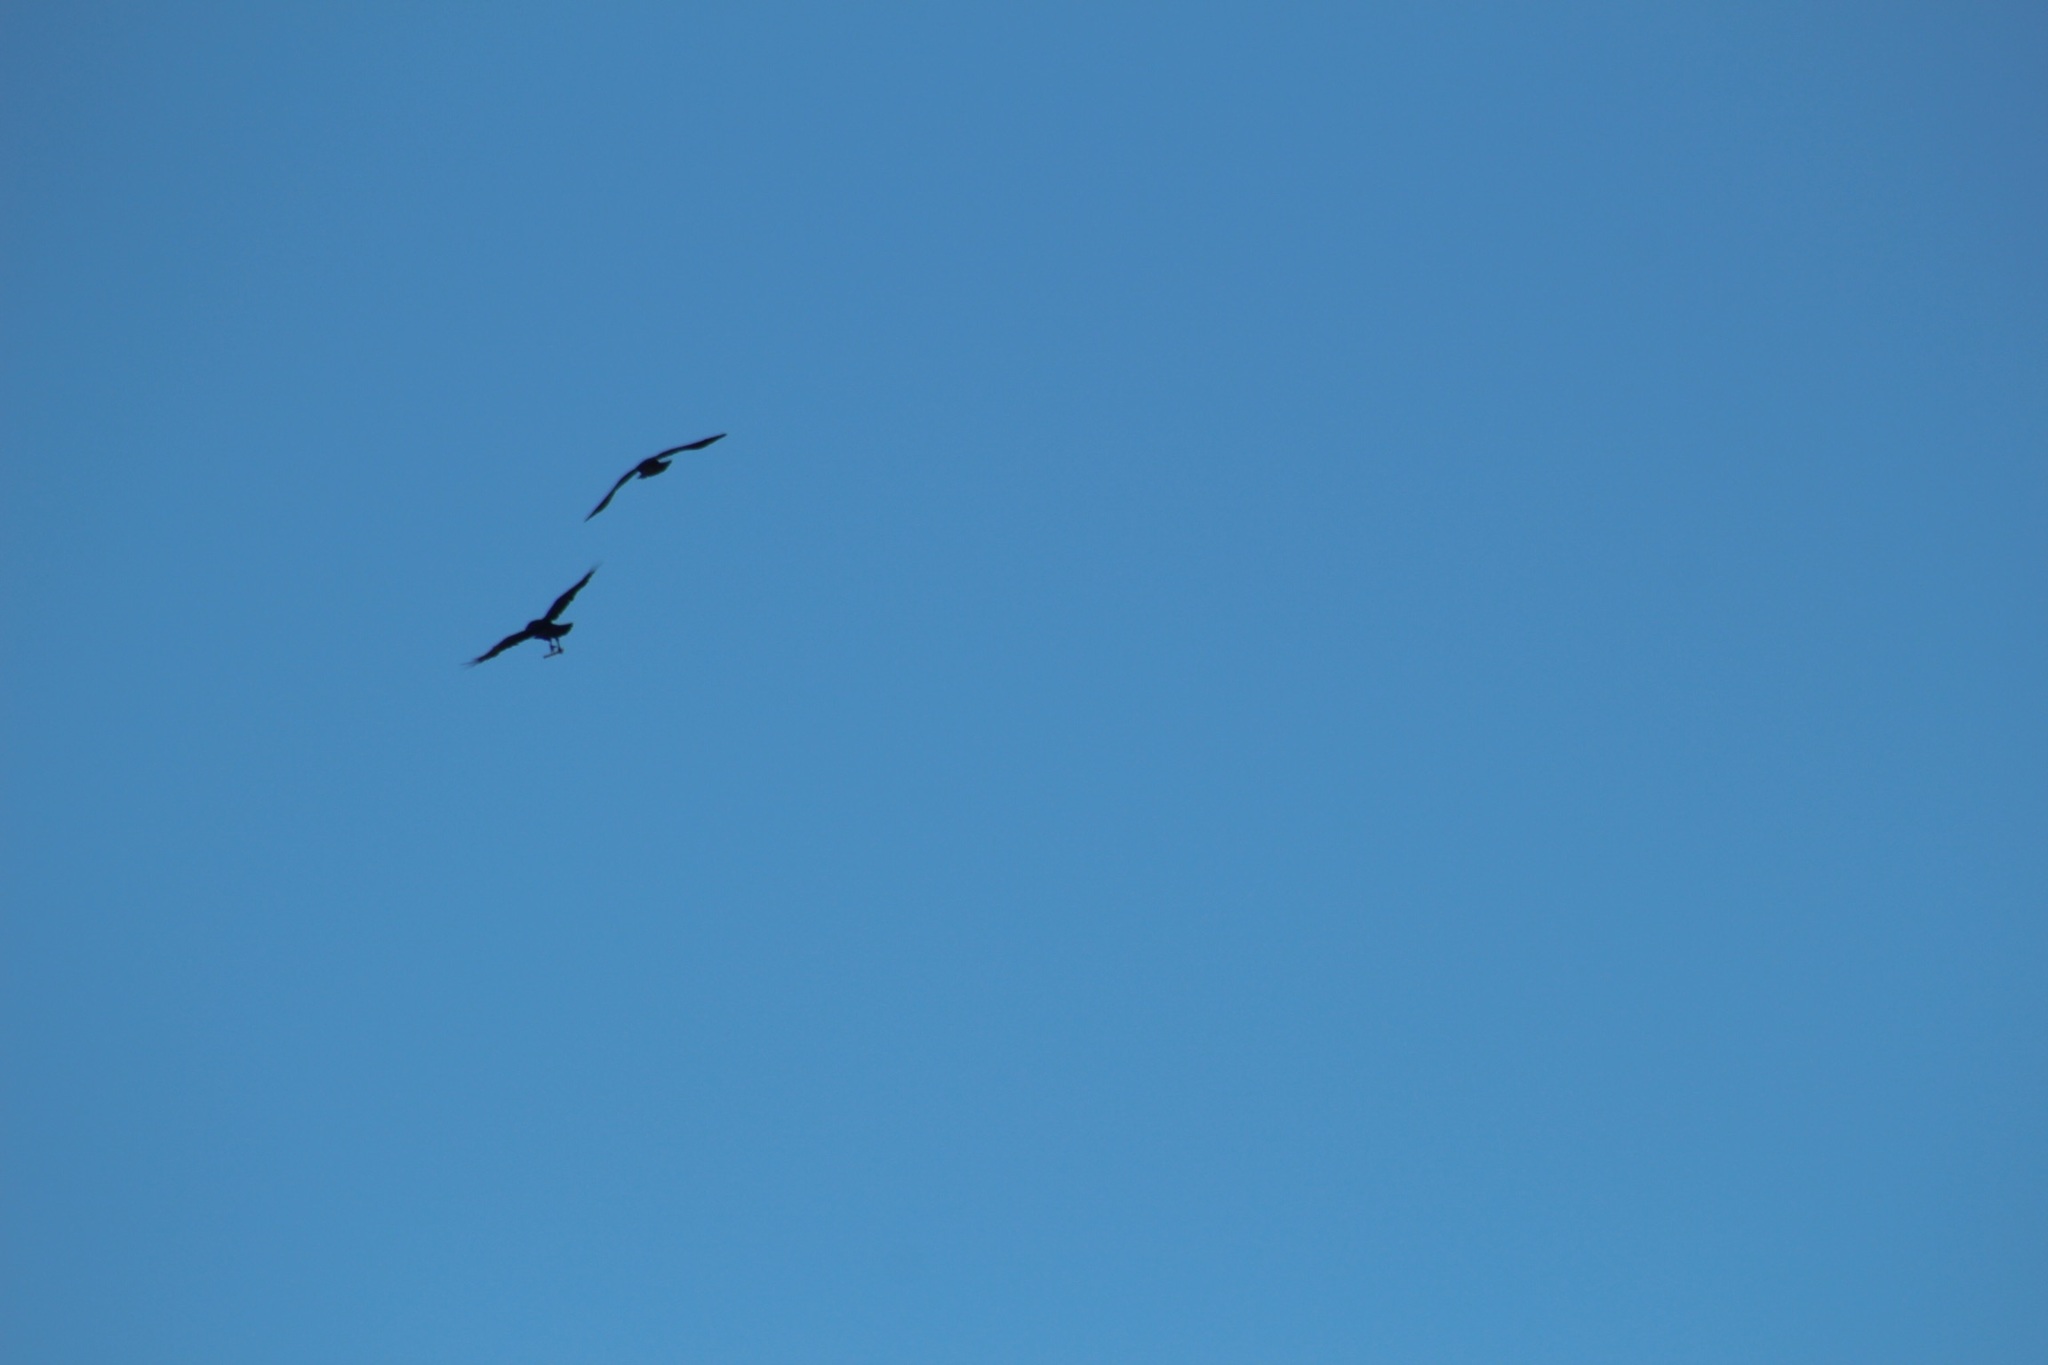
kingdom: Animalia
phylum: Chordata
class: Aves
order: Passeriformes
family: Corvidae
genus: Corvus
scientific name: Corvus corax
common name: Common raven
